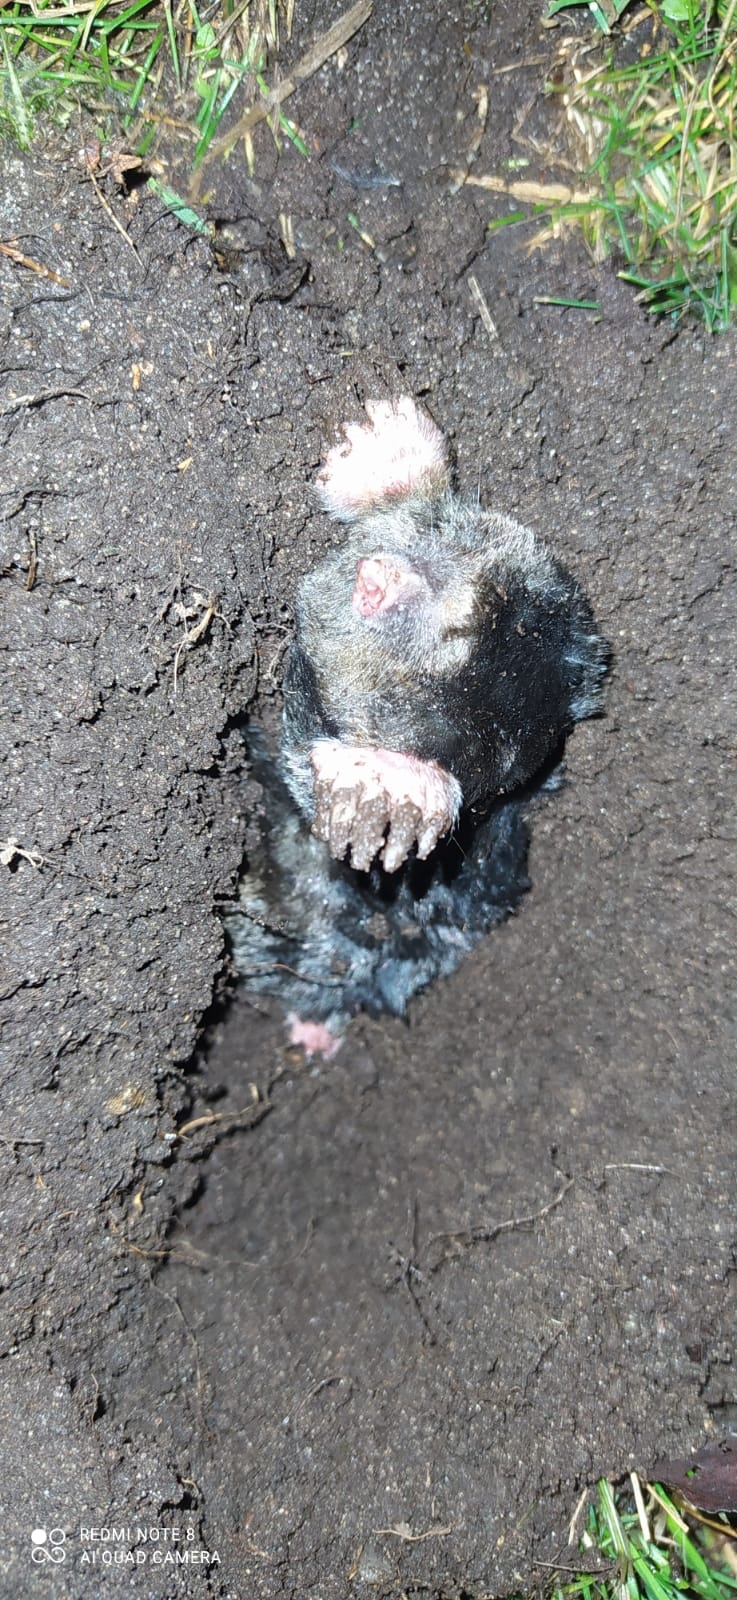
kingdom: Animalia
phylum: Chordata
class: Mammalia
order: Soricomorpha
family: Talpidae
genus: Talpa
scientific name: Talpa europaea
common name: European mole
